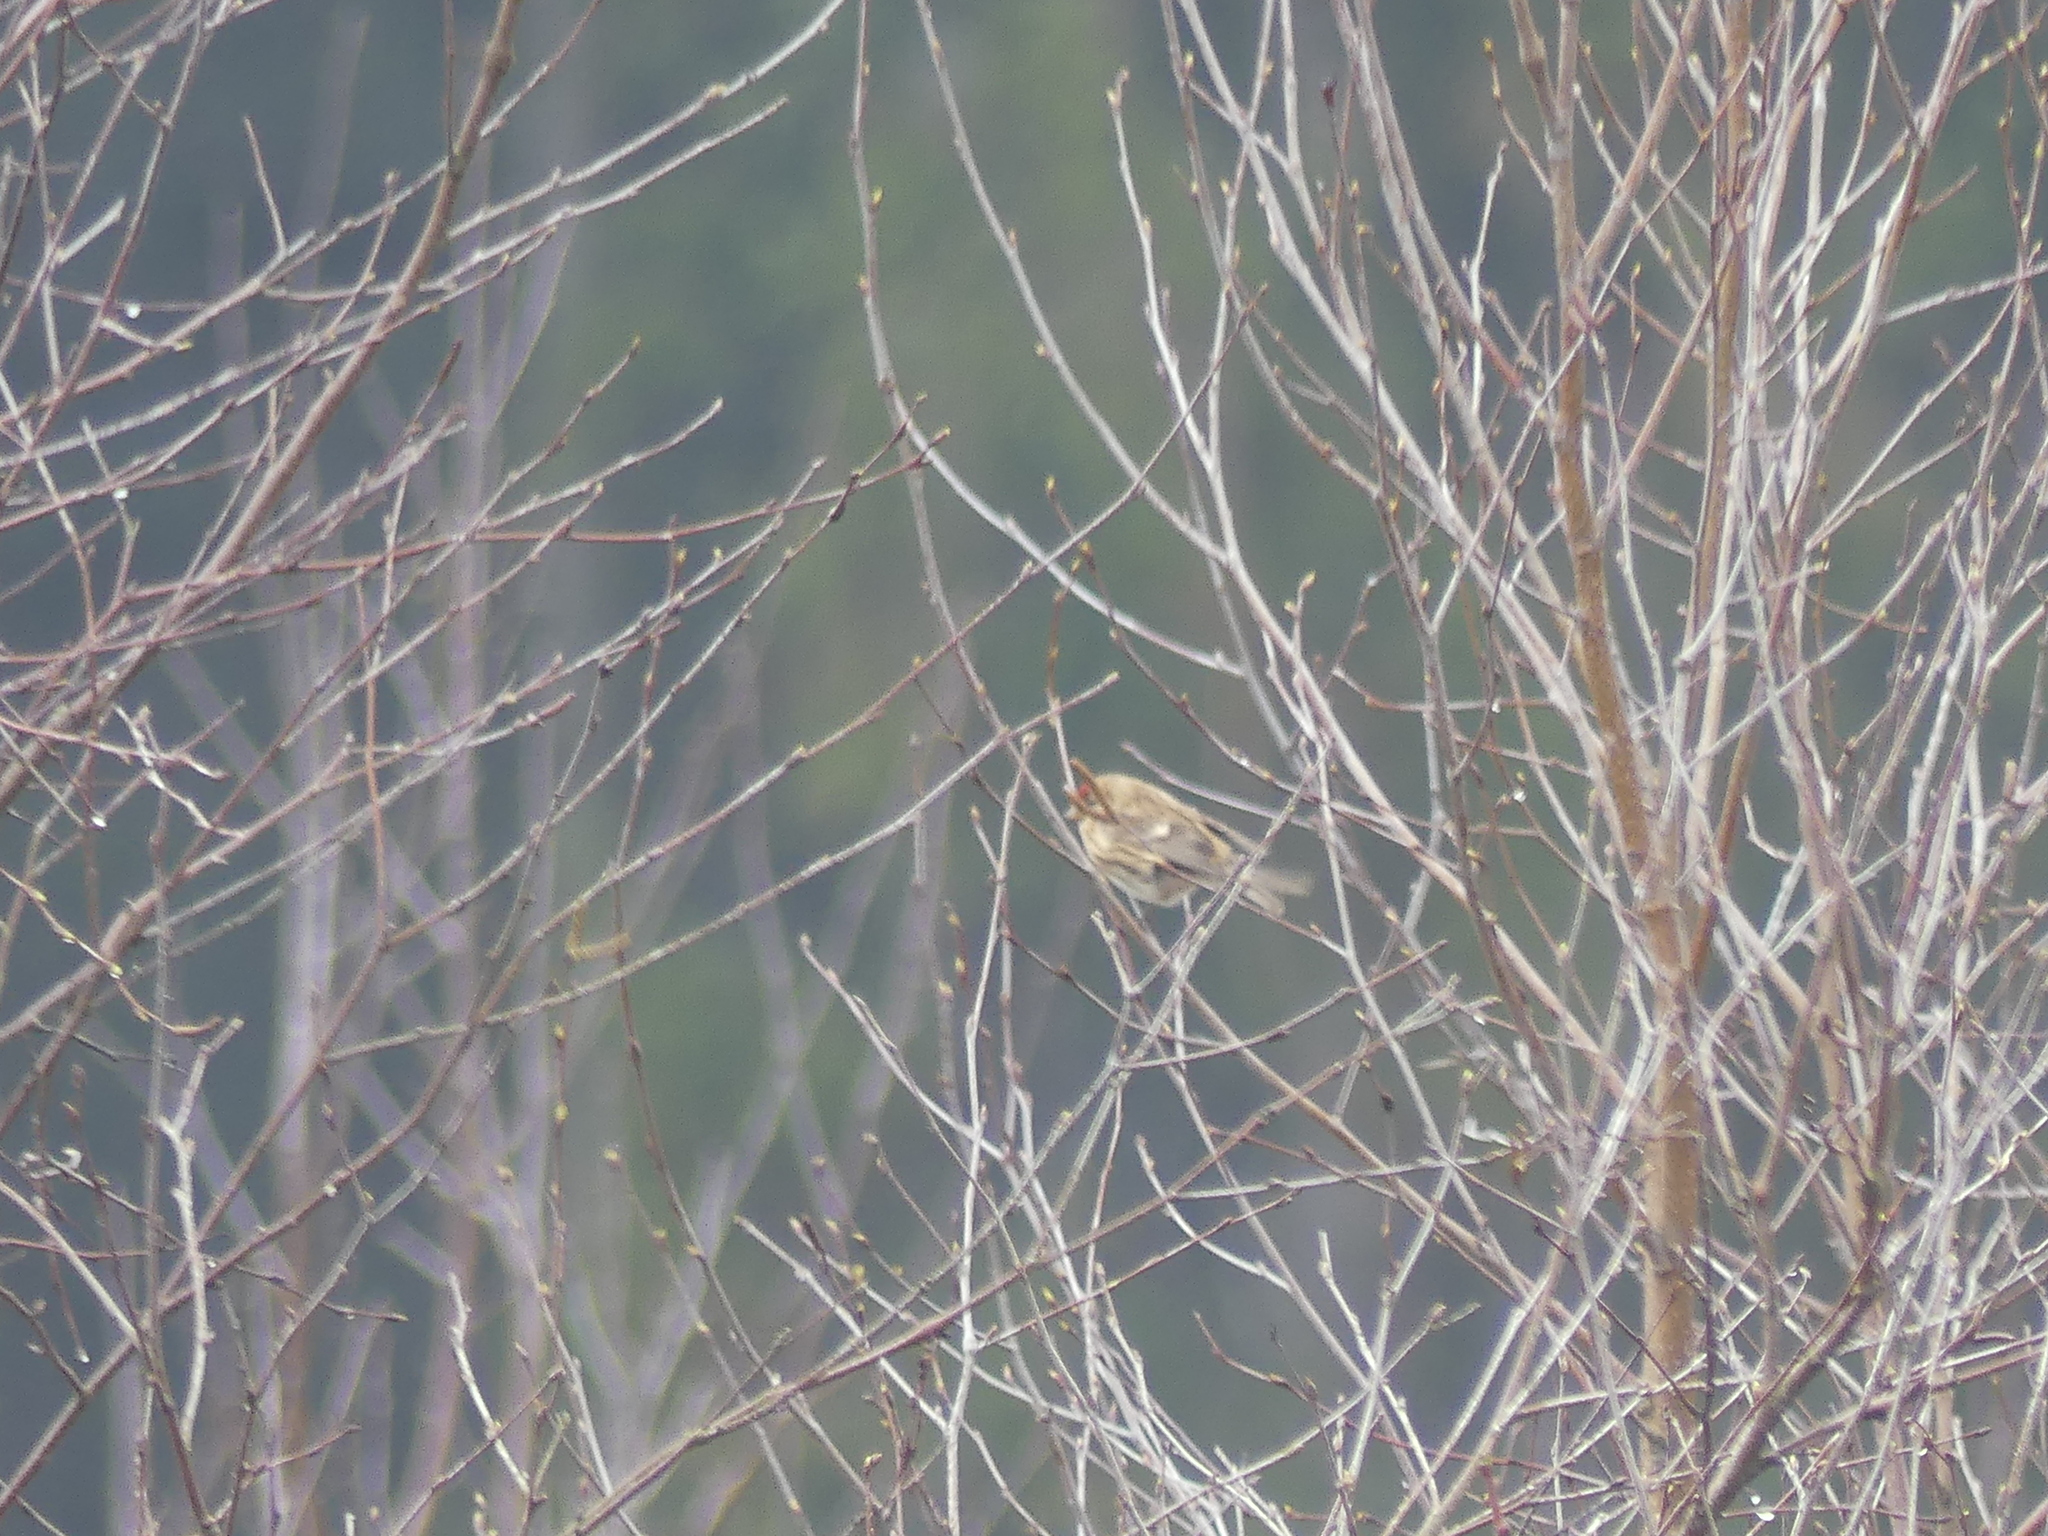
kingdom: Animalia
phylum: Chordata
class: Aves
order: Passeriformes
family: Fringillidae
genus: Acanthis
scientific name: Acanthis flammea
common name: Common redpoll
